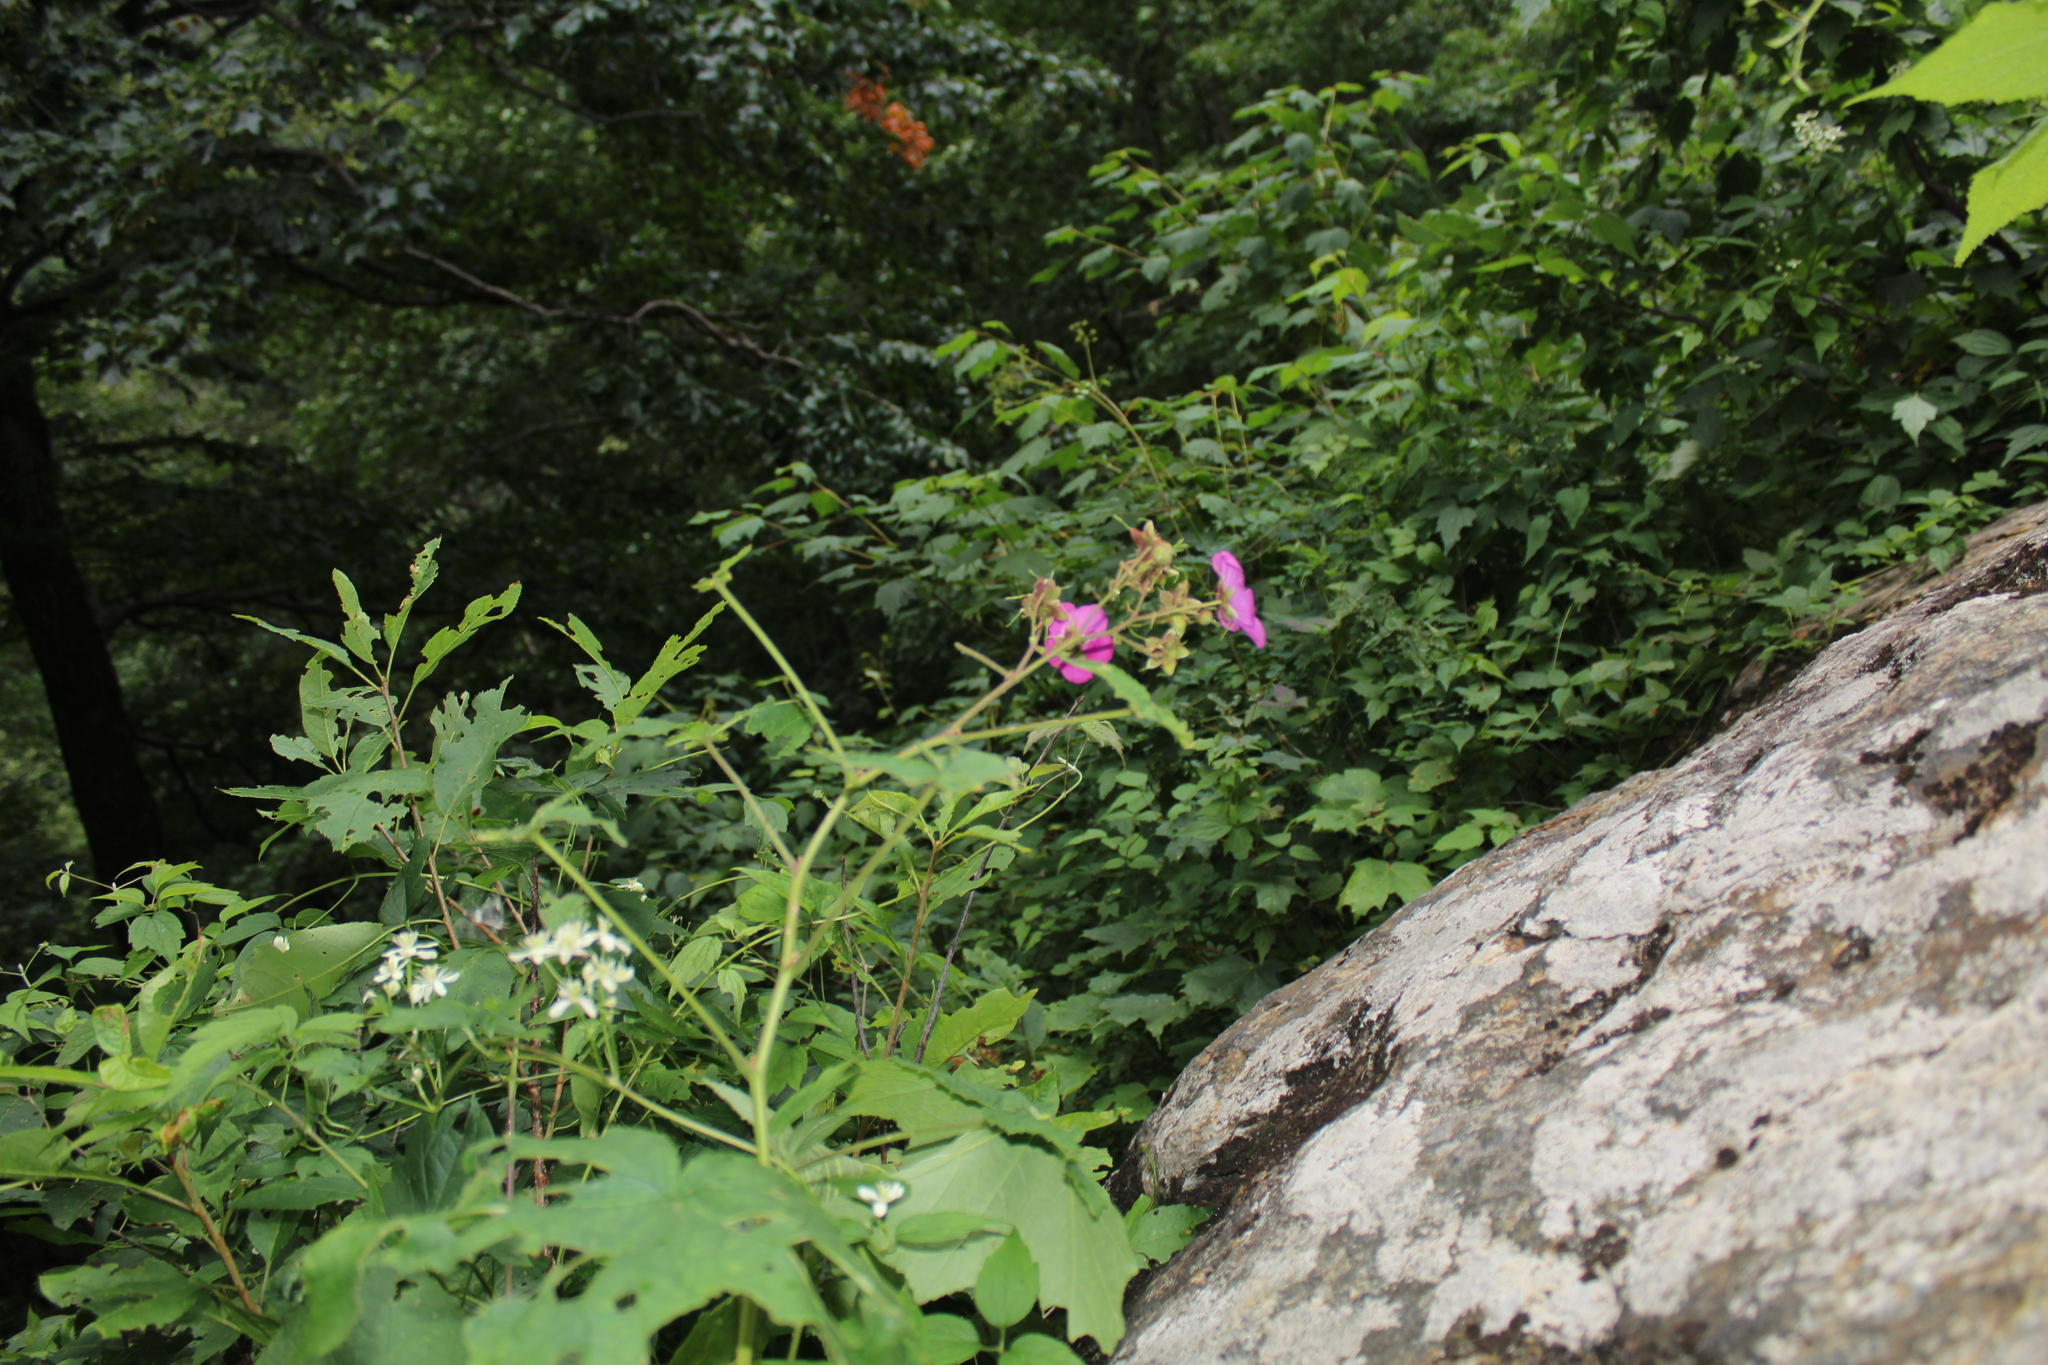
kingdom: Plantae
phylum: Tracheophyta
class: Magnoliopsida
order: Rosales
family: Rosaceae
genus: Rubus
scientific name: Rubus odoratus
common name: Purple-flowered raspberry
